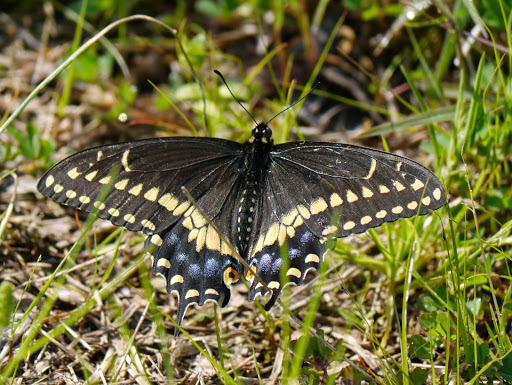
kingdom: Animalia
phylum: Arthropoda
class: Insecta
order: Lepidoptera
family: Papilionidae
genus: Papilio
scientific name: Papilio polyxenes
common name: Black swallowtail
